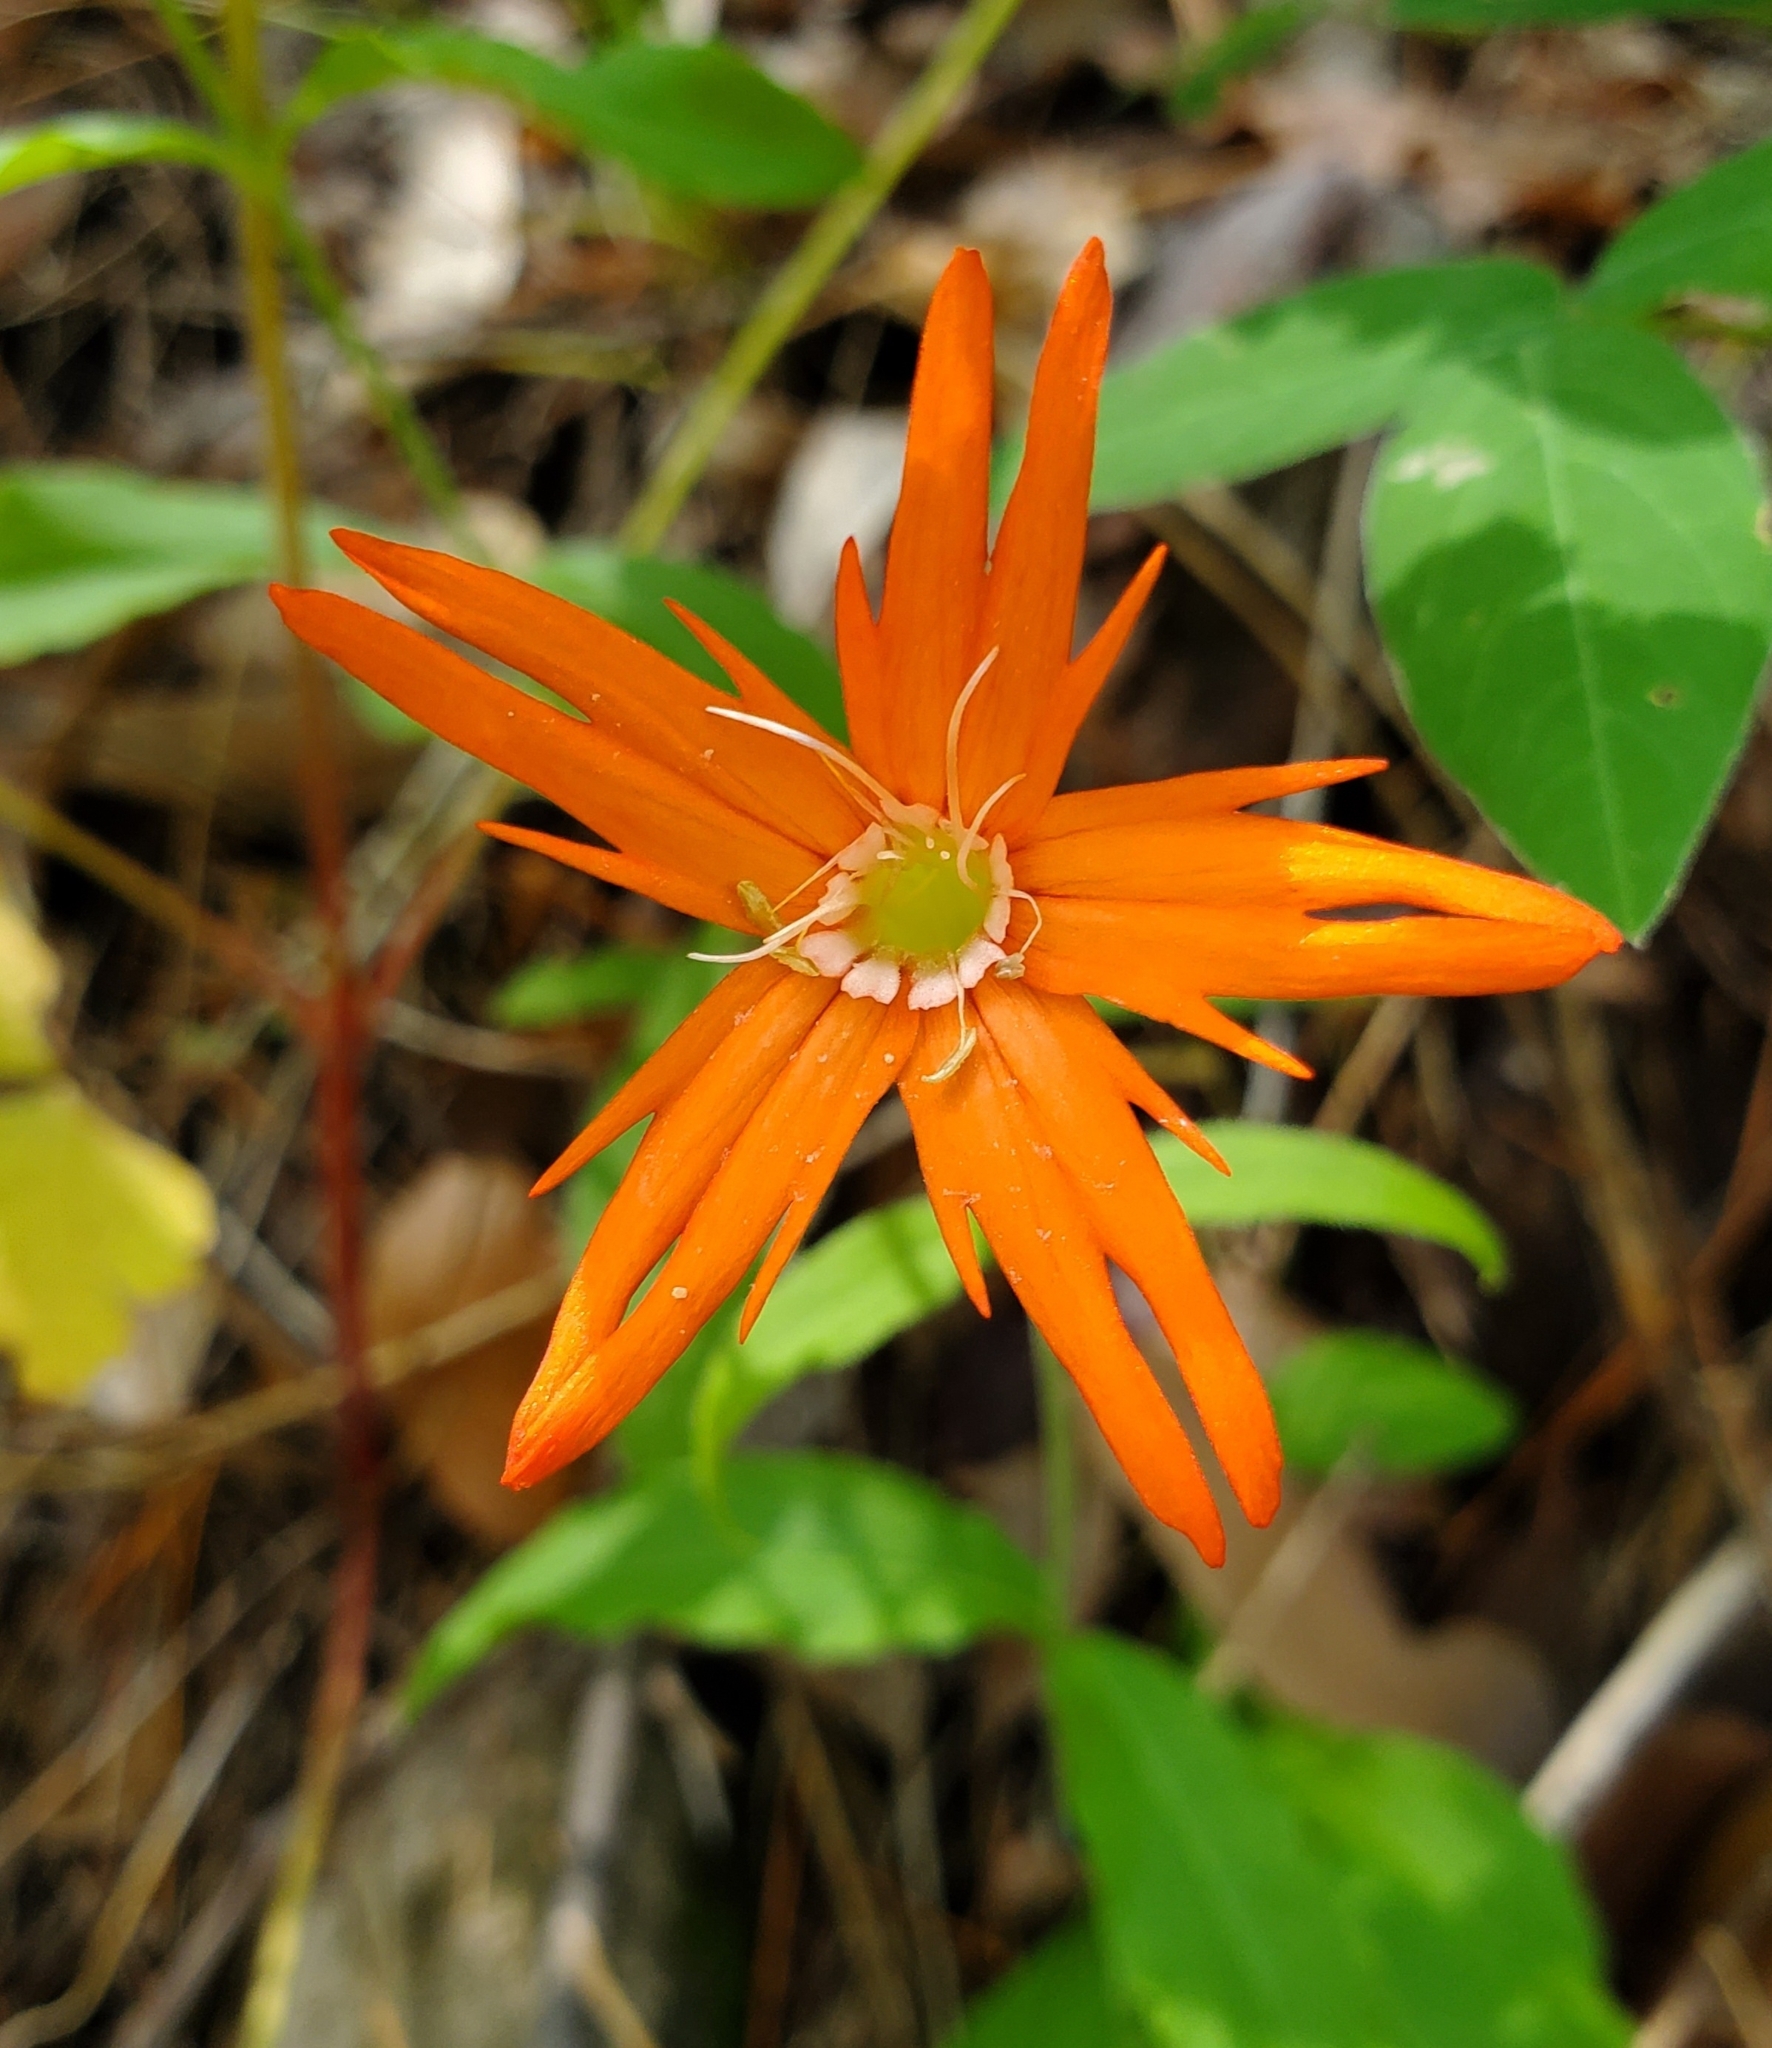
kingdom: Plantae
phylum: Tracheophyta
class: Magnoliopsida
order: Caryophyllales
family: Caryophyllaceae
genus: Silene
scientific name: Silene laciniata
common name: Indian-pink
